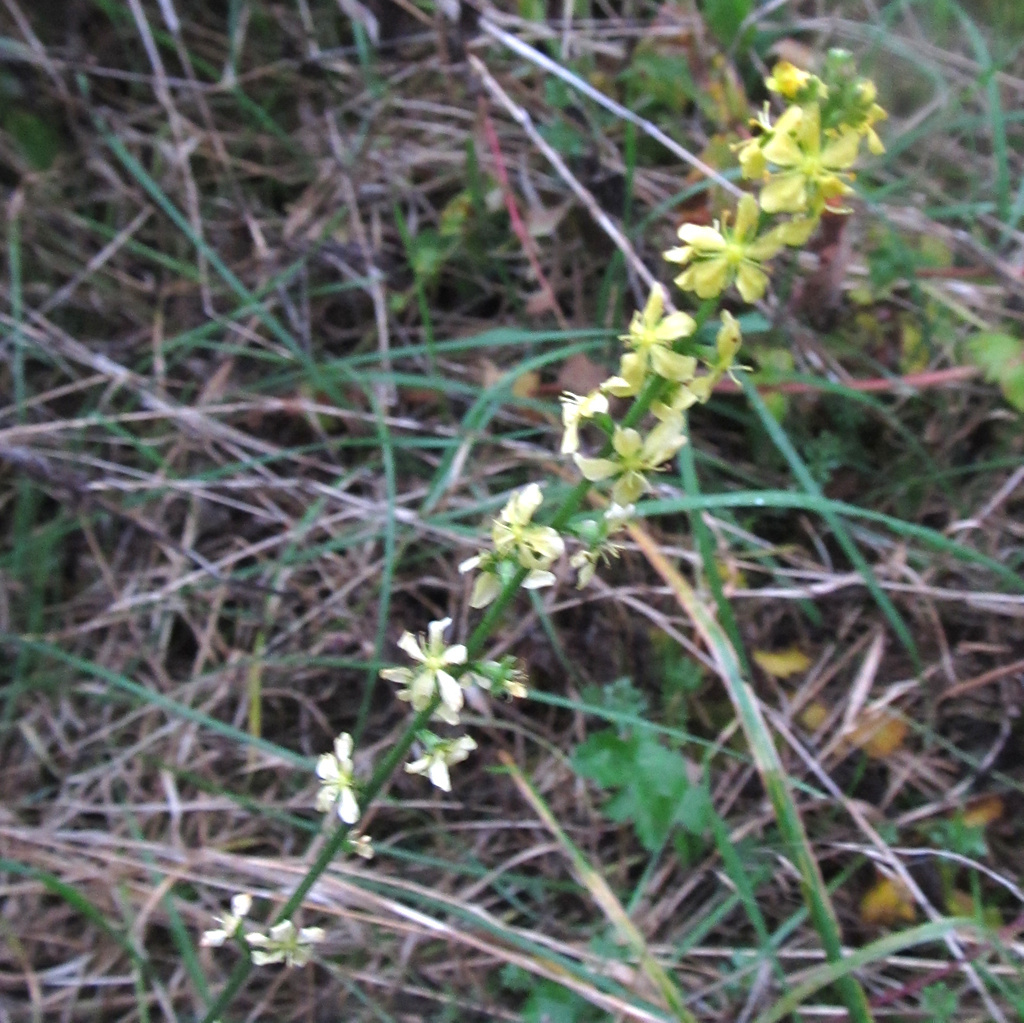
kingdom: Plantae
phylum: Tracheophyta
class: Magnoliopsida
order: Rosales
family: Rosaceae
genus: Agrimonia
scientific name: Agrimonia eupatoria
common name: Agrimony
